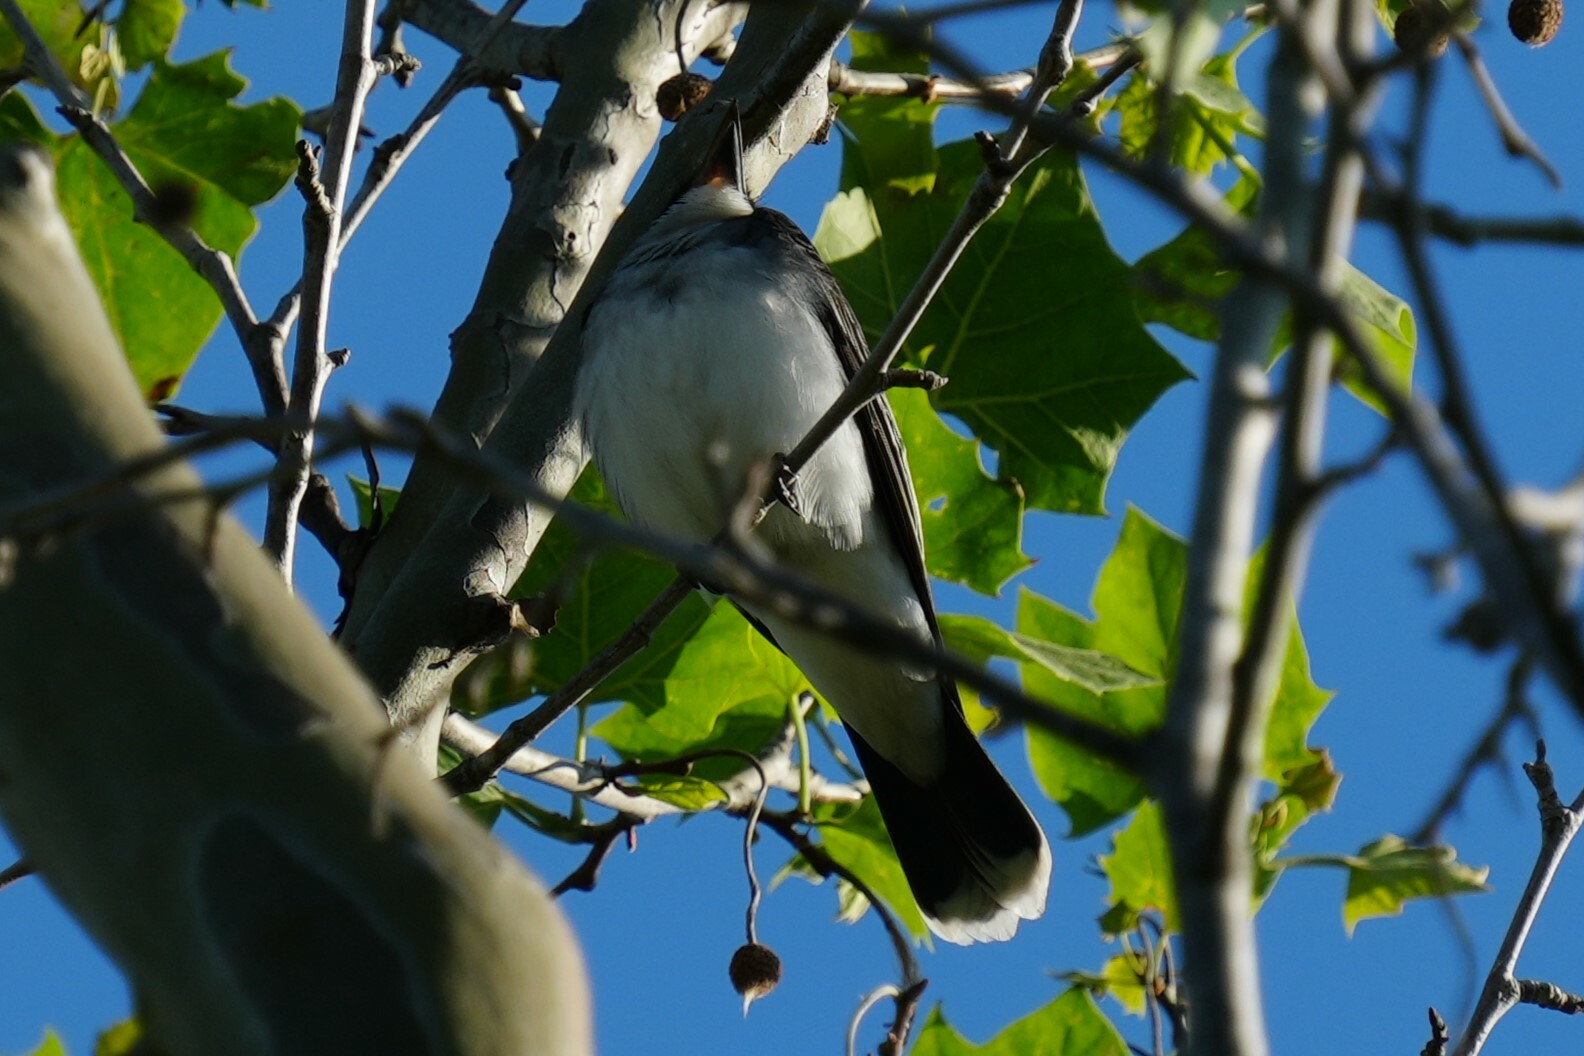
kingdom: Animalia
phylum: Chordata
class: Aves
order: Passeriformes
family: Tyrannidae
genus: Tyrannus
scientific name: Tyrannus tyrannus
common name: Eastern kingbird
